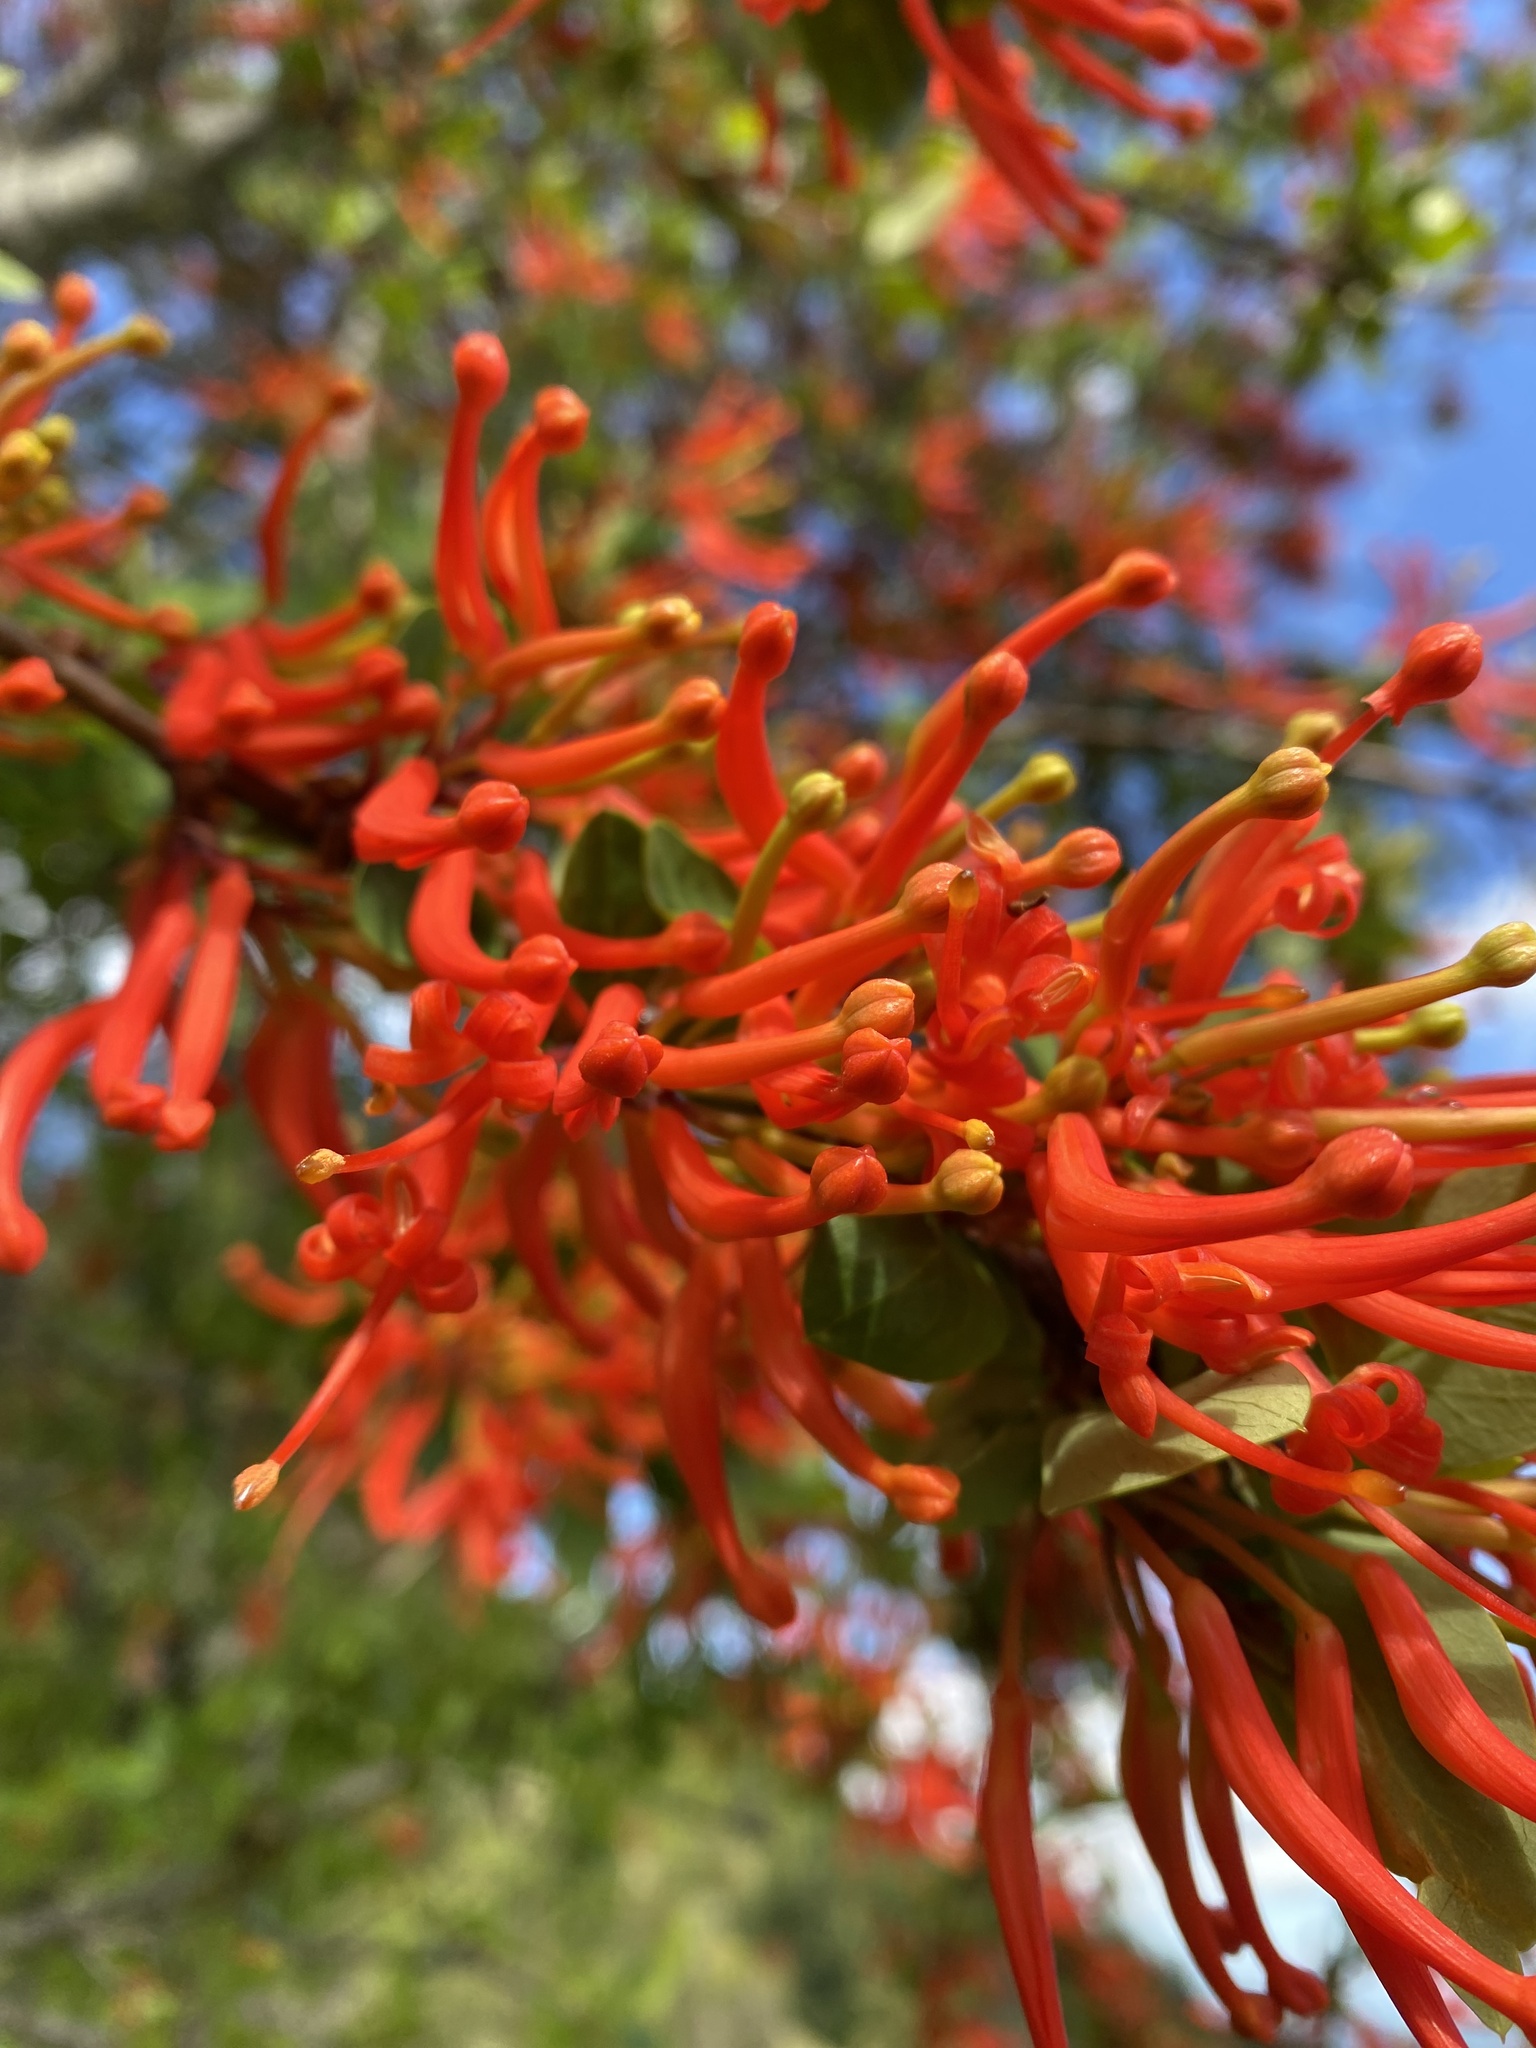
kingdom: Plantae
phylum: Tracheophyta
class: Magnoliopsida
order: Proteales
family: Proteaceae
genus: Embothrium
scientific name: Embothrium coccineum
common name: Chilean firebush
